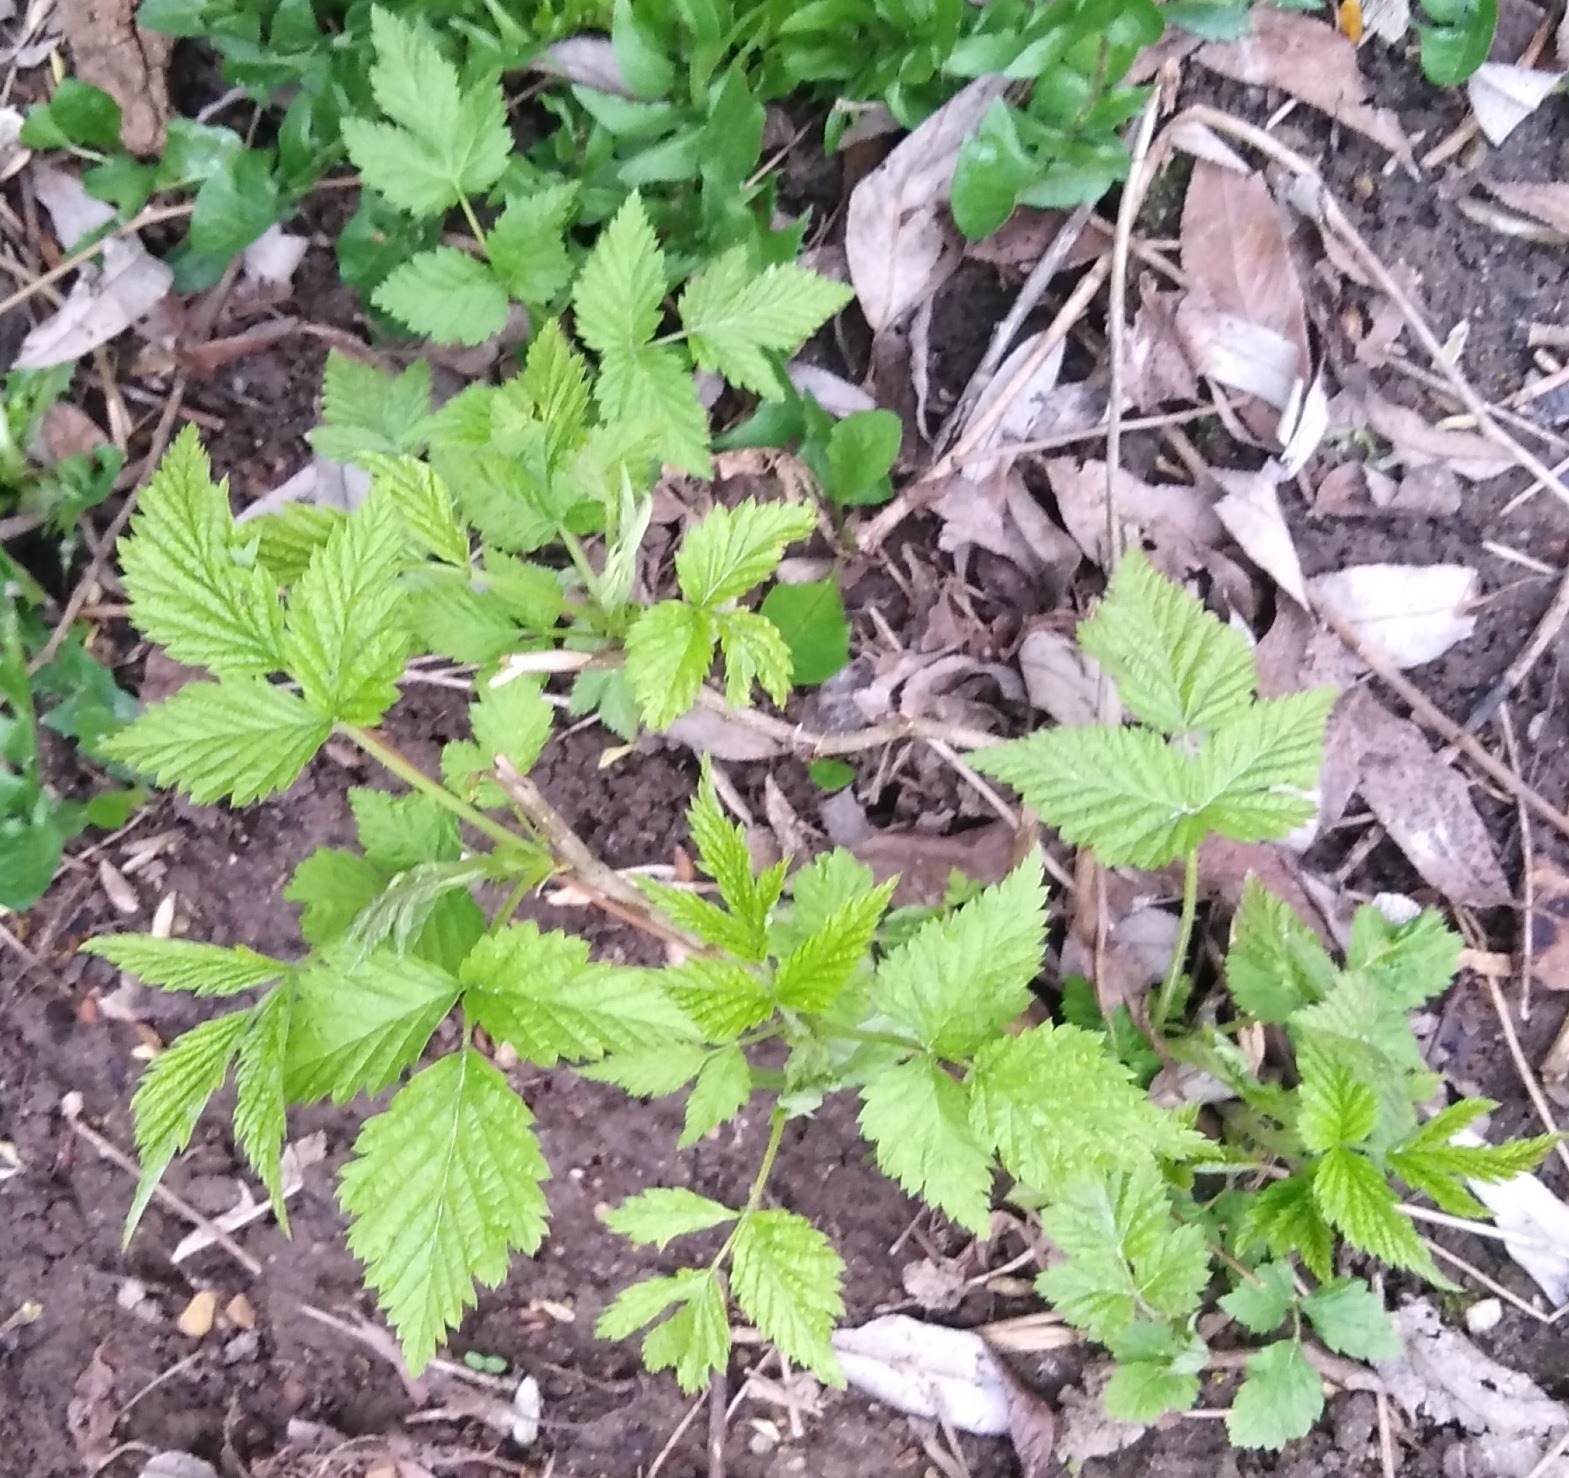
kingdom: Plantae
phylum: Tracheophyta
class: Magnoliopsida
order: Rosales
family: Rosaceae
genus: Rubus
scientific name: Rubus idaeus
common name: Raspberry
